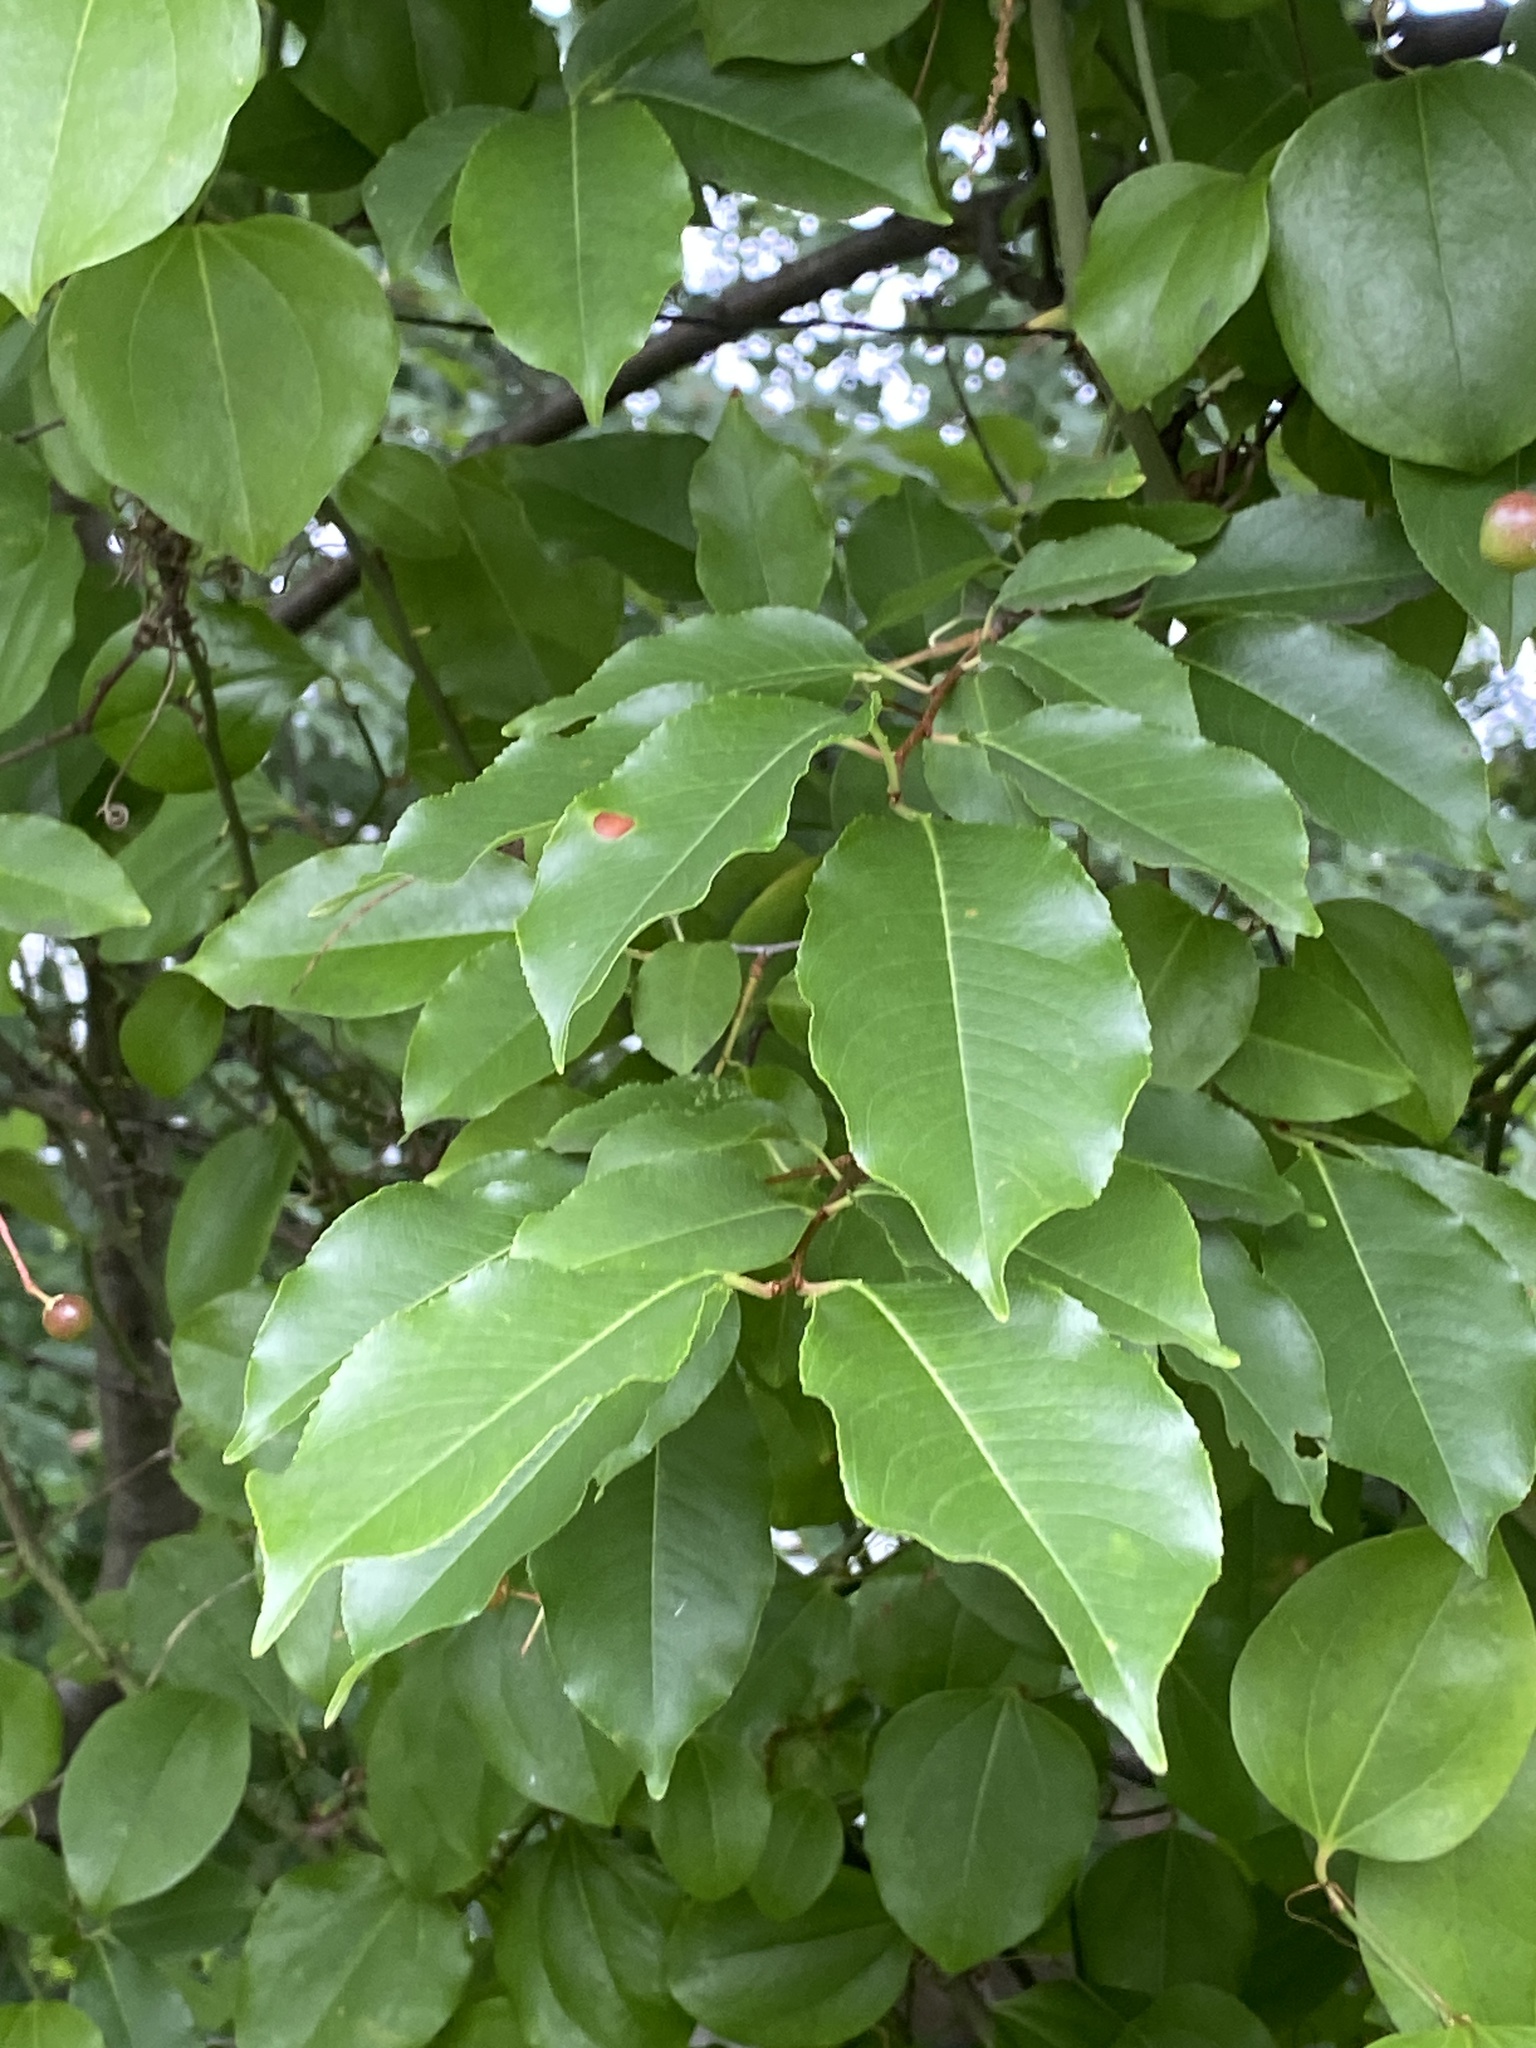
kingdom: Plantae
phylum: Tracheophyta
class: Magnoliopsida
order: Rosales
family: Rosaceae
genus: Prunus
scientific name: Prunus serotina
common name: Black cherry
